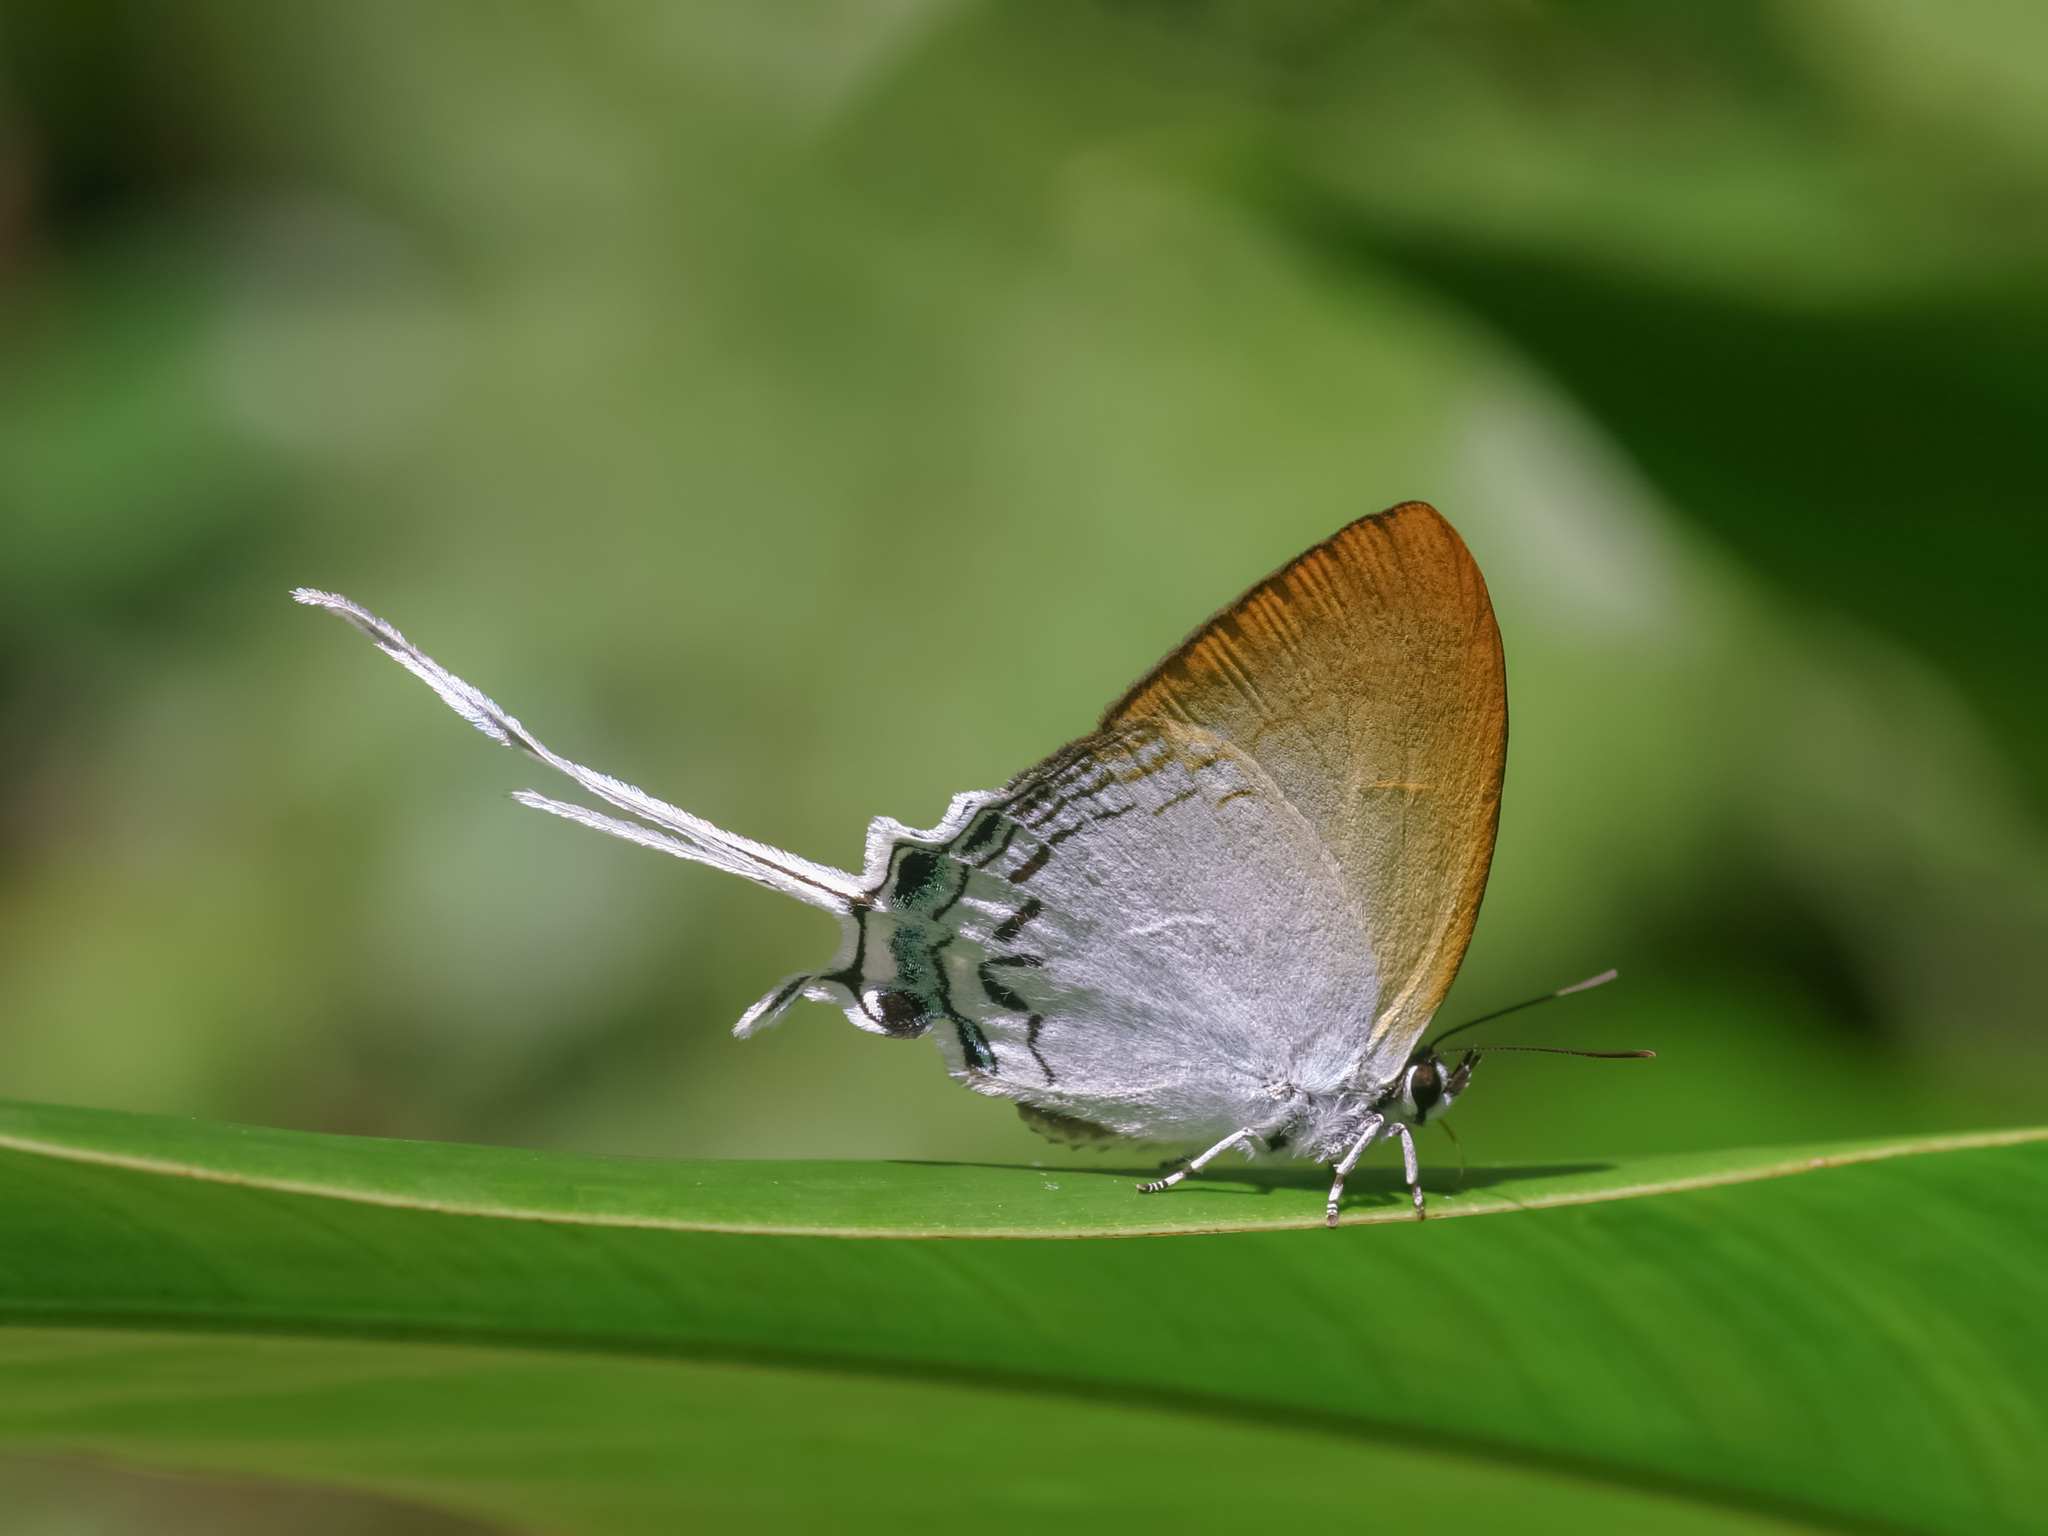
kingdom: Animalia
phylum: Arthropoda
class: Insecta
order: Lepidoptera
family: Lycaenidae
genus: Cheritra
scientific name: Cheritra freja
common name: Common imperial
